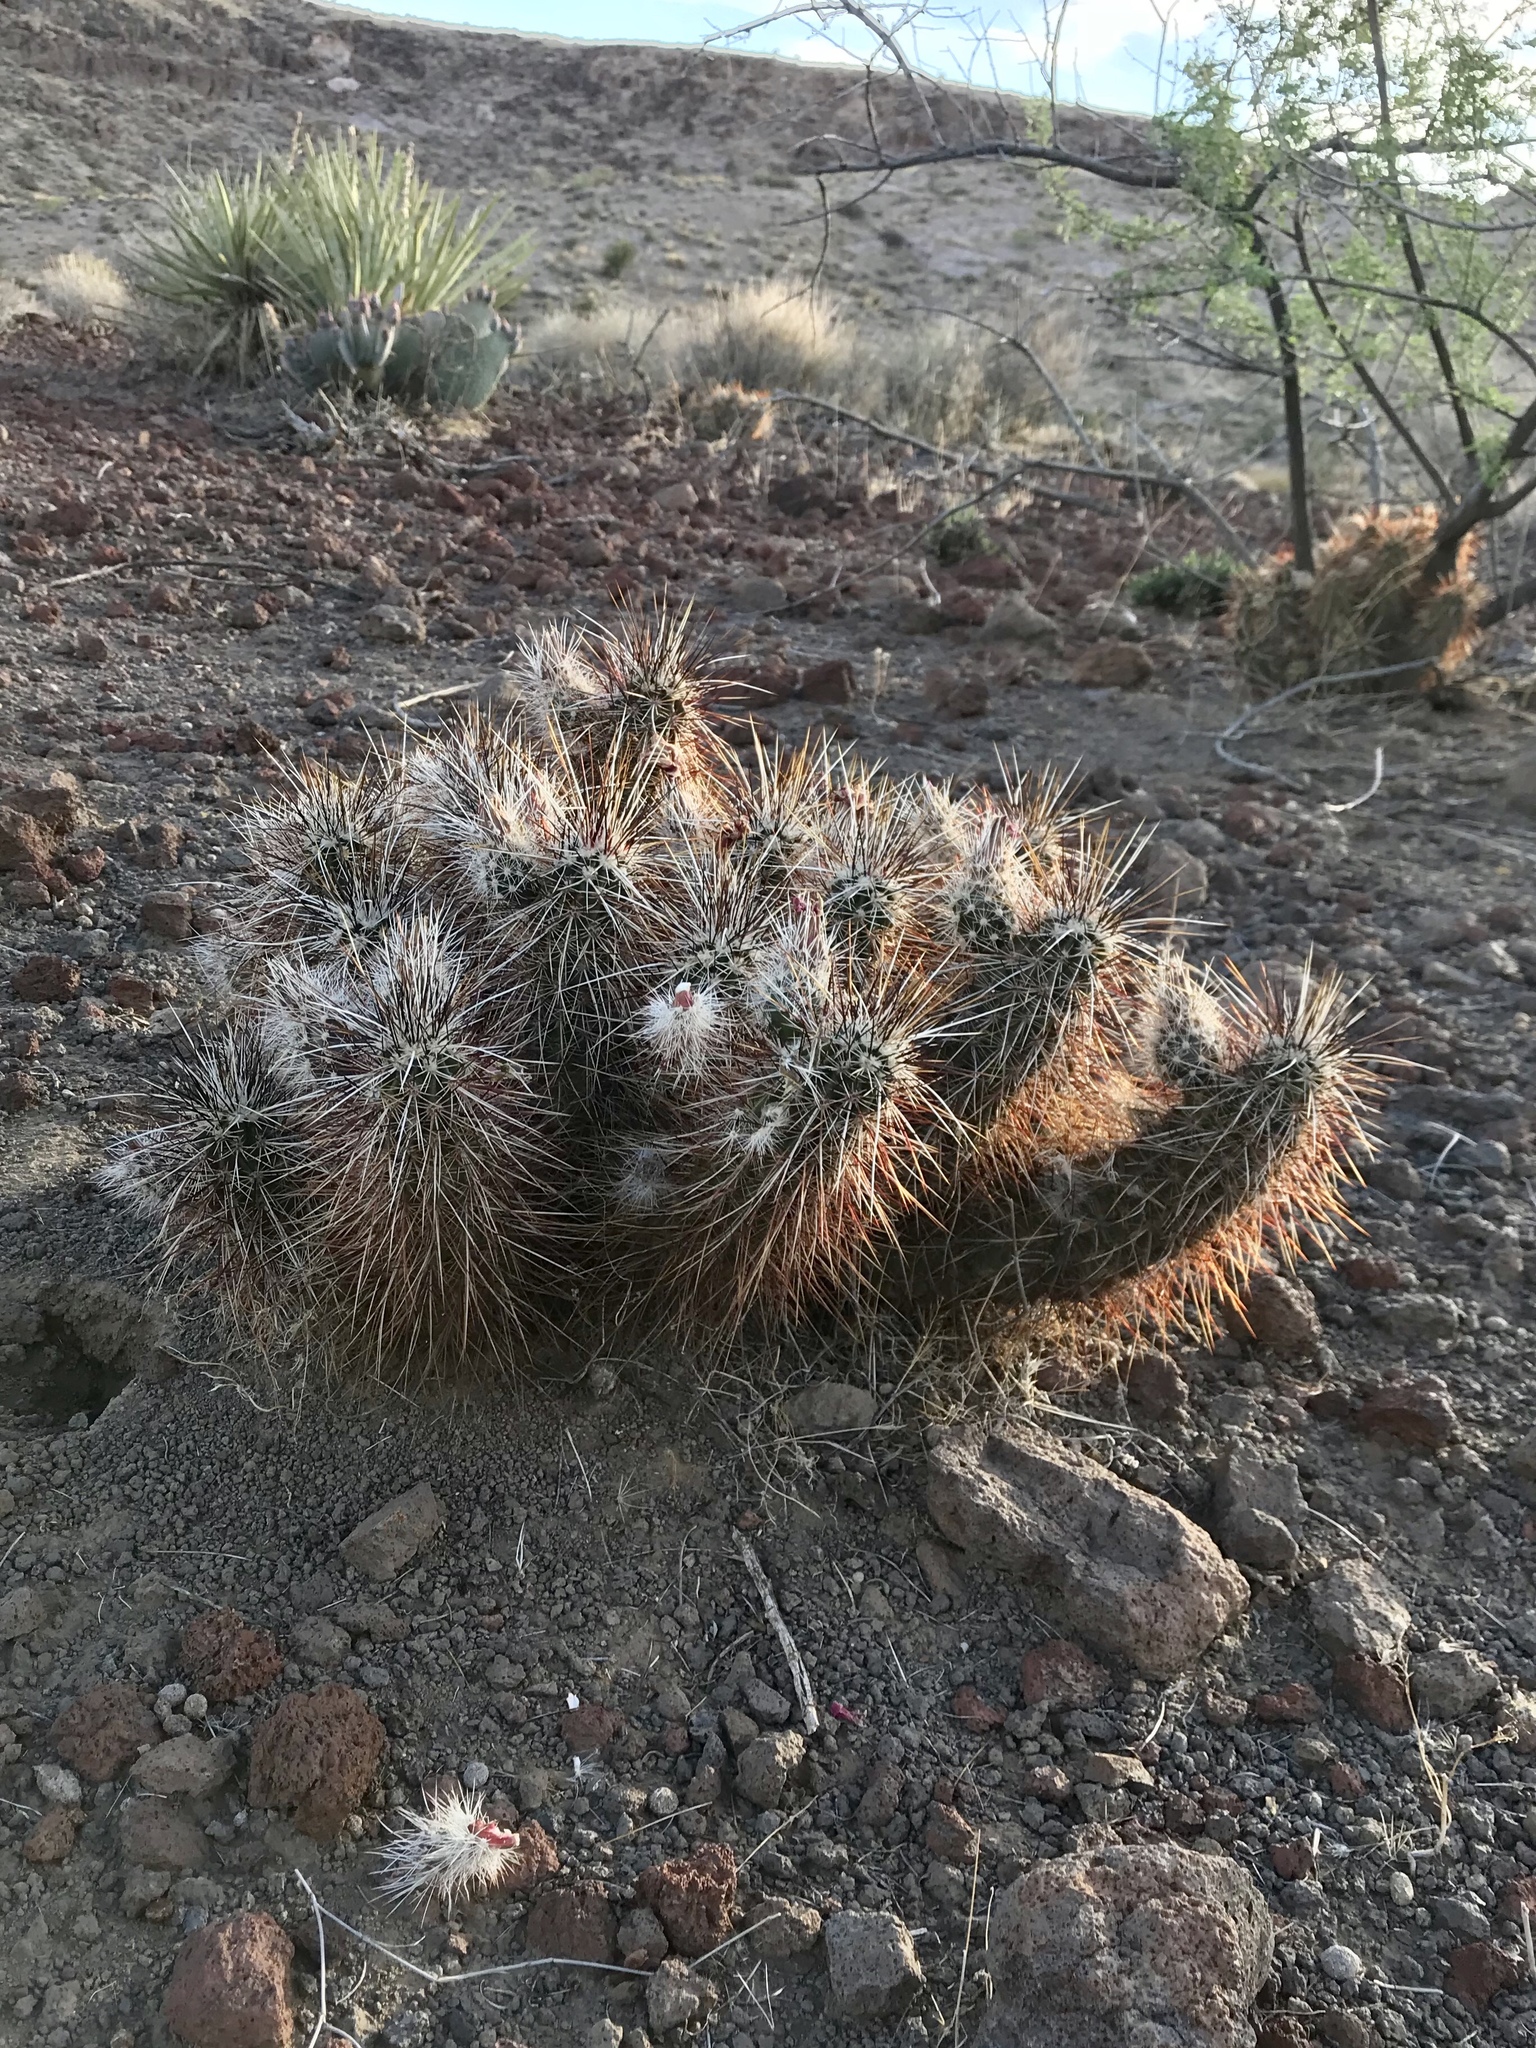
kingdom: Plantae
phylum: Tracheophyta
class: Magnoliopsida
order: Caryophyllales
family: Cactaceae
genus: Echinocereus
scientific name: Echinocereus engelmannii
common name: Engelmann's hedgehog cactus
